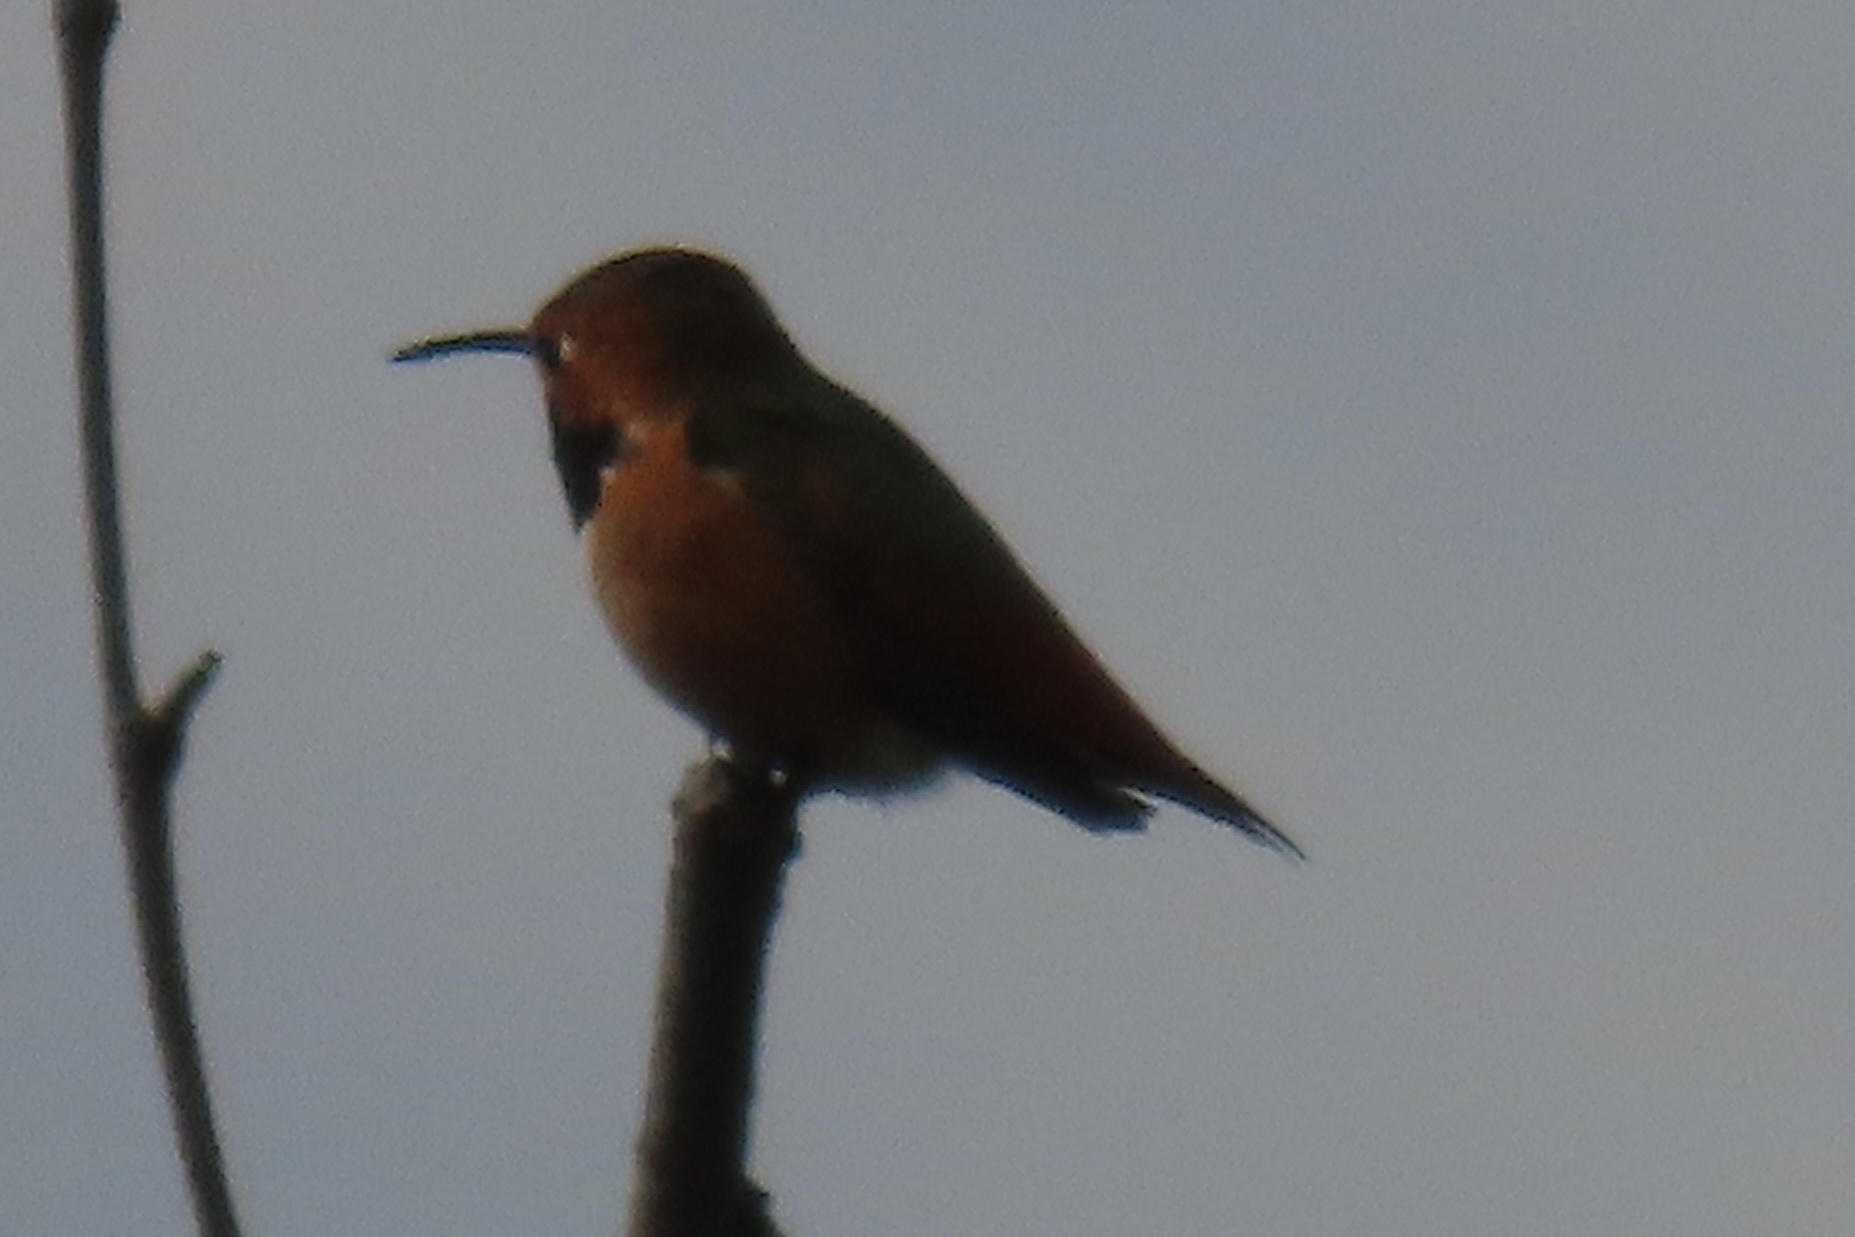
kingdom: Animalia
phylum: Chordata
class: Aves
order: Apodiformes
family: Trochilidae
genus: Selasphorus
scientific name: Selasphorus sasin
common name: Allen's hummingbird
